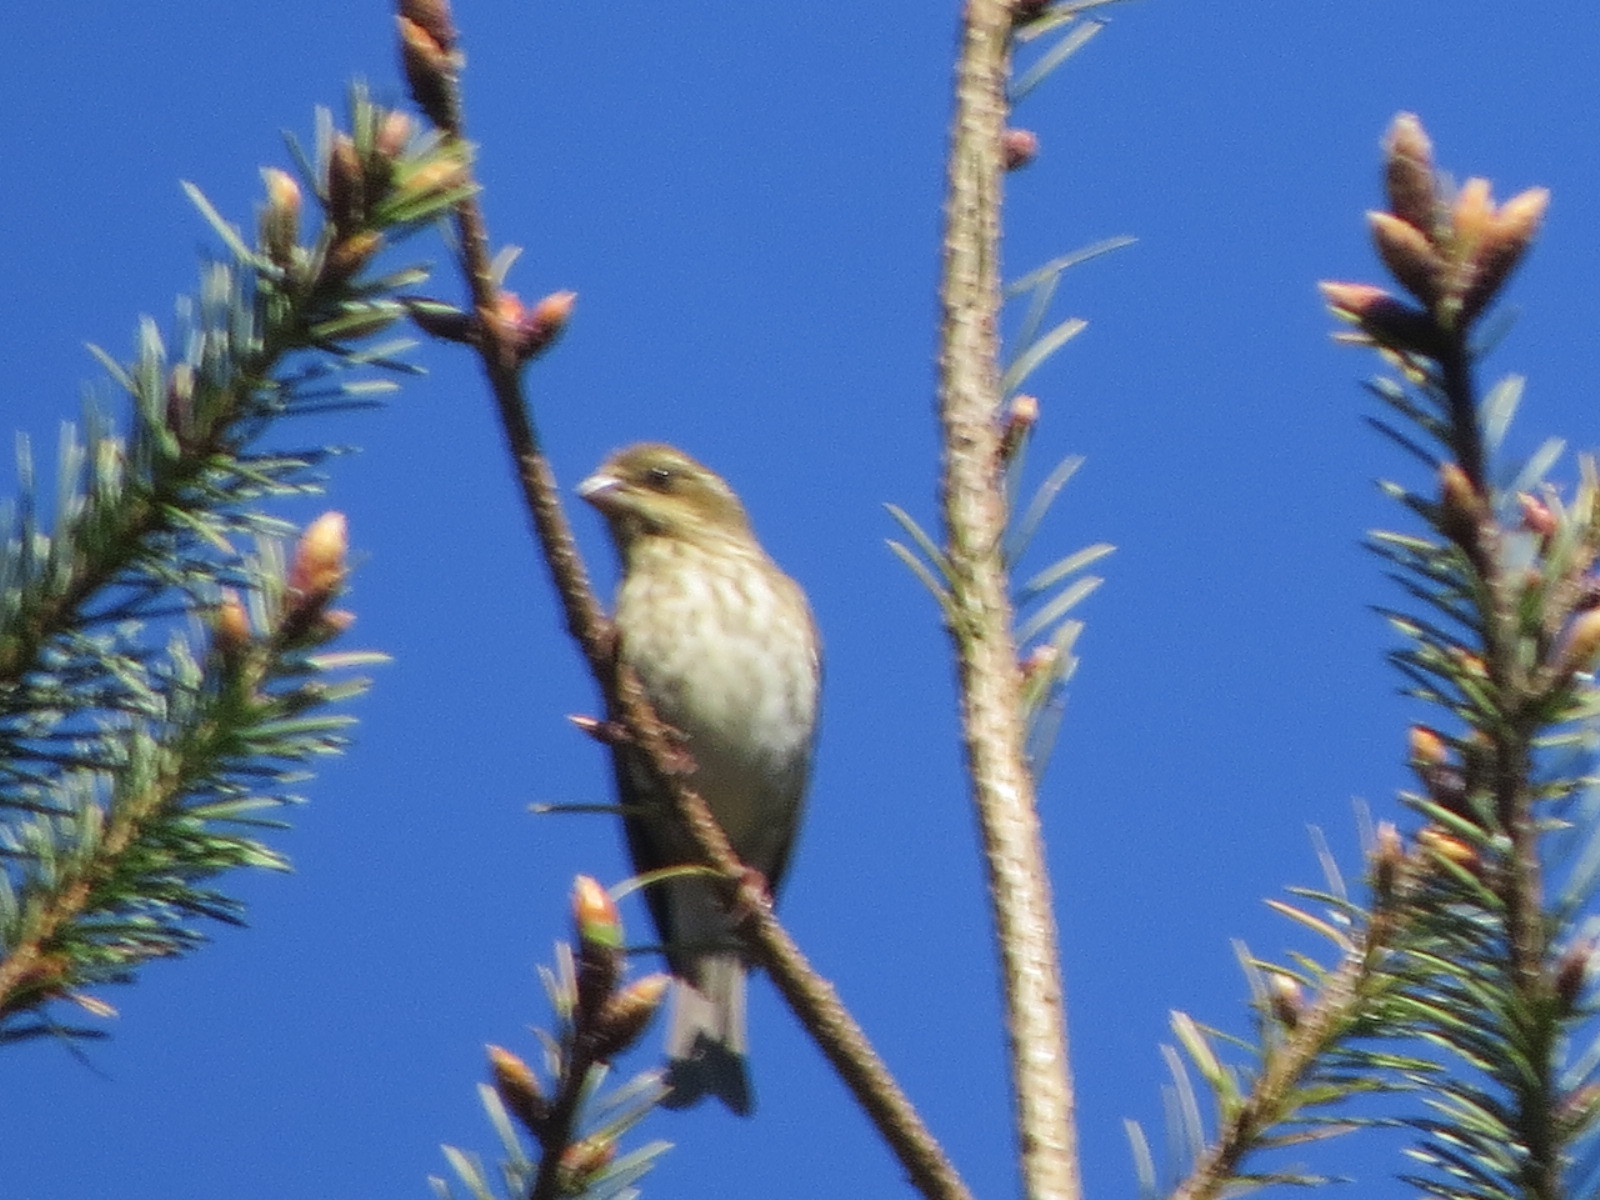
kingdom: Animalia
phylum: Chordata
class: Aves
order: Passeriformes
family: Fringillidae
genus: Haemorhous
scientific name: Haemorhous purpureus
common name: Purple finch
